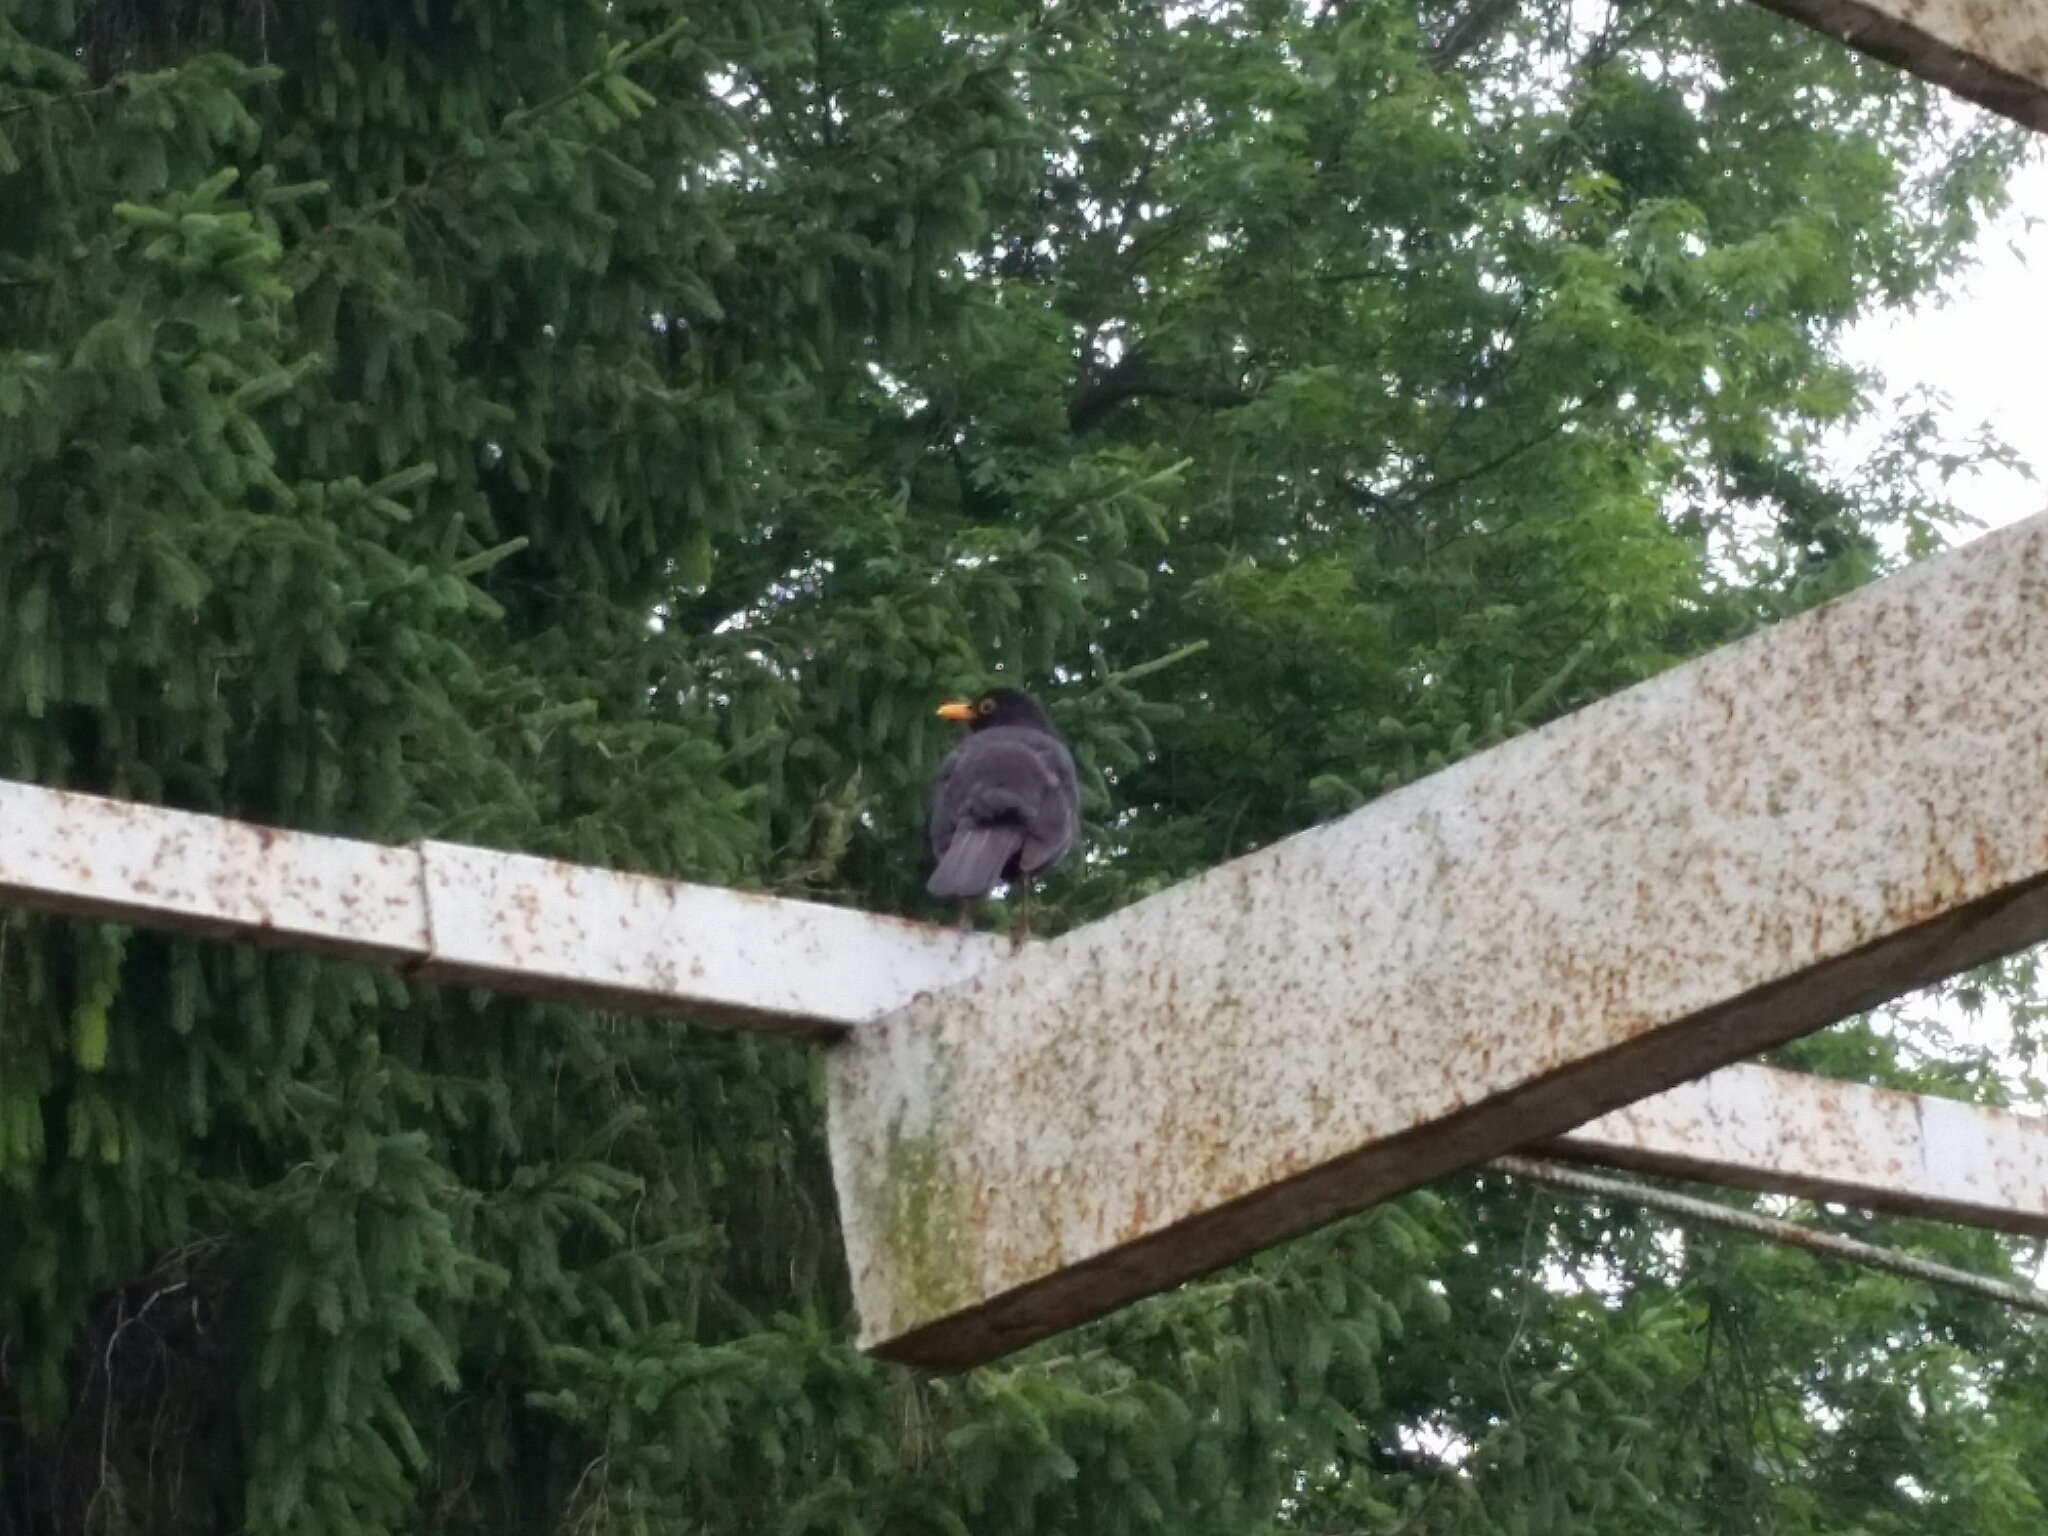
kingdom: Animalia
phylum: Chordata
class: Aves
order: Passeriformes
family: Turdidae
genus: Turdus
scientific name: Turdus merula
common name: Common blackbird
